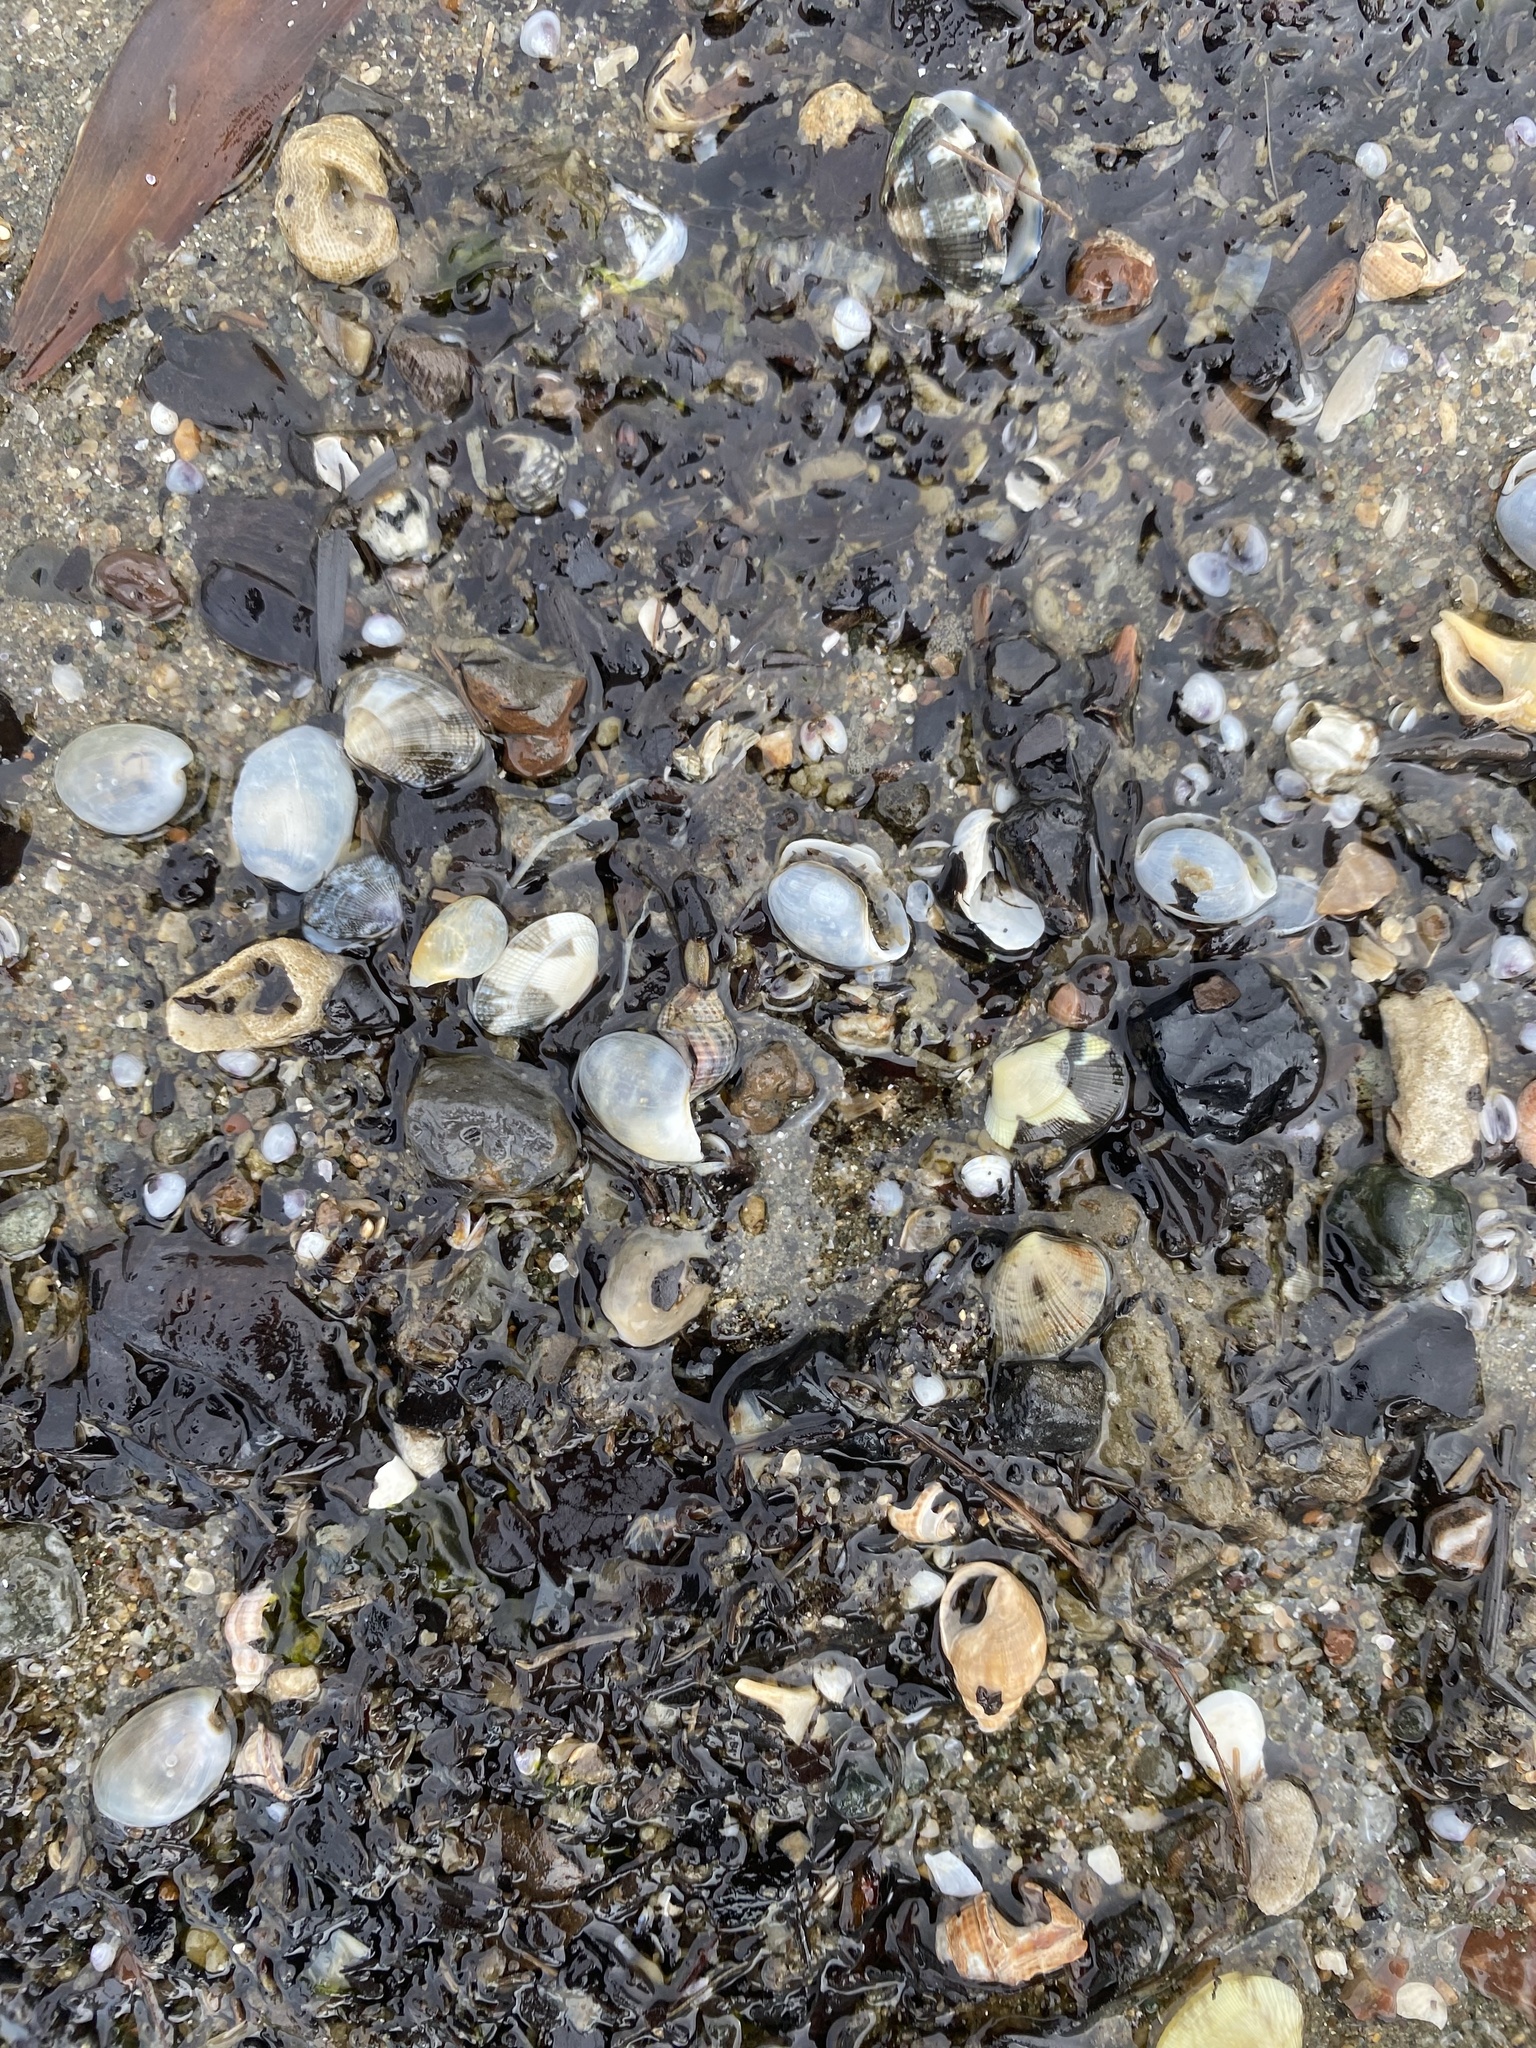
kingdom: Animalia
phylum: Mollusca
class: Gastropoda
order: Cephalaspidea
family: Haminoeidae
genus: Haloa
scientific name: Haloa japonica
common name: Japanese bubble snail
